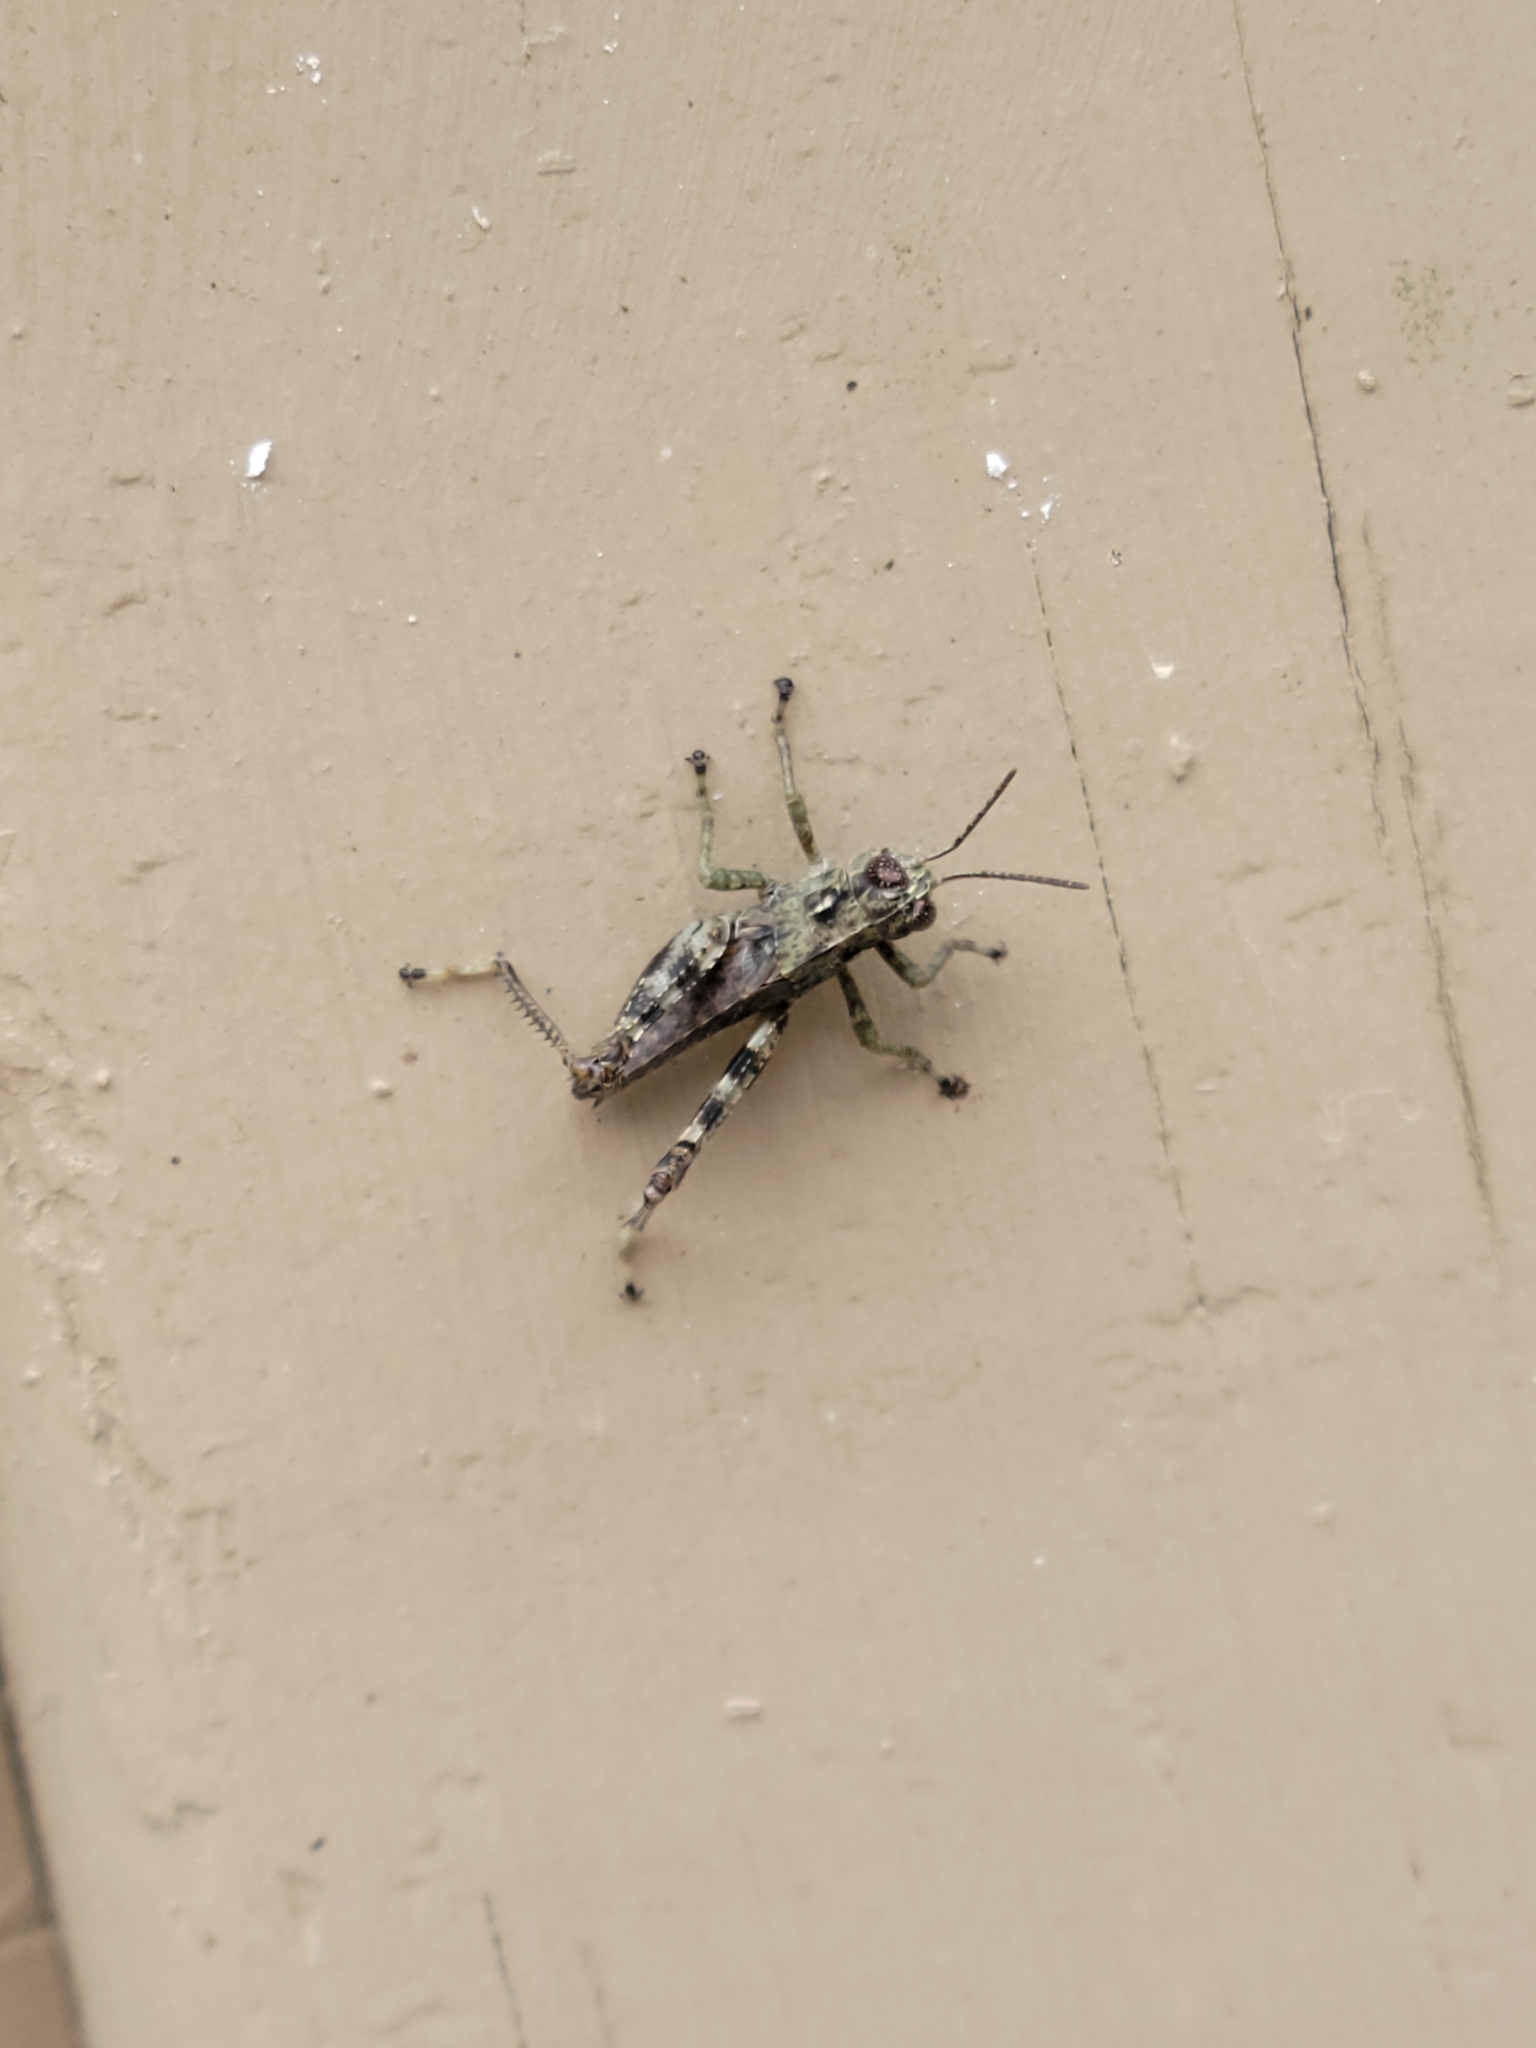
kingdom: Animalia
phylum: Arthropoda
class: Insecta
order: Orthoptera
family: Acrididae
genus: Melanoplus
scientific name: Melanoplus punctulatus
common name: Pine-tree spur-throat grasshopper
